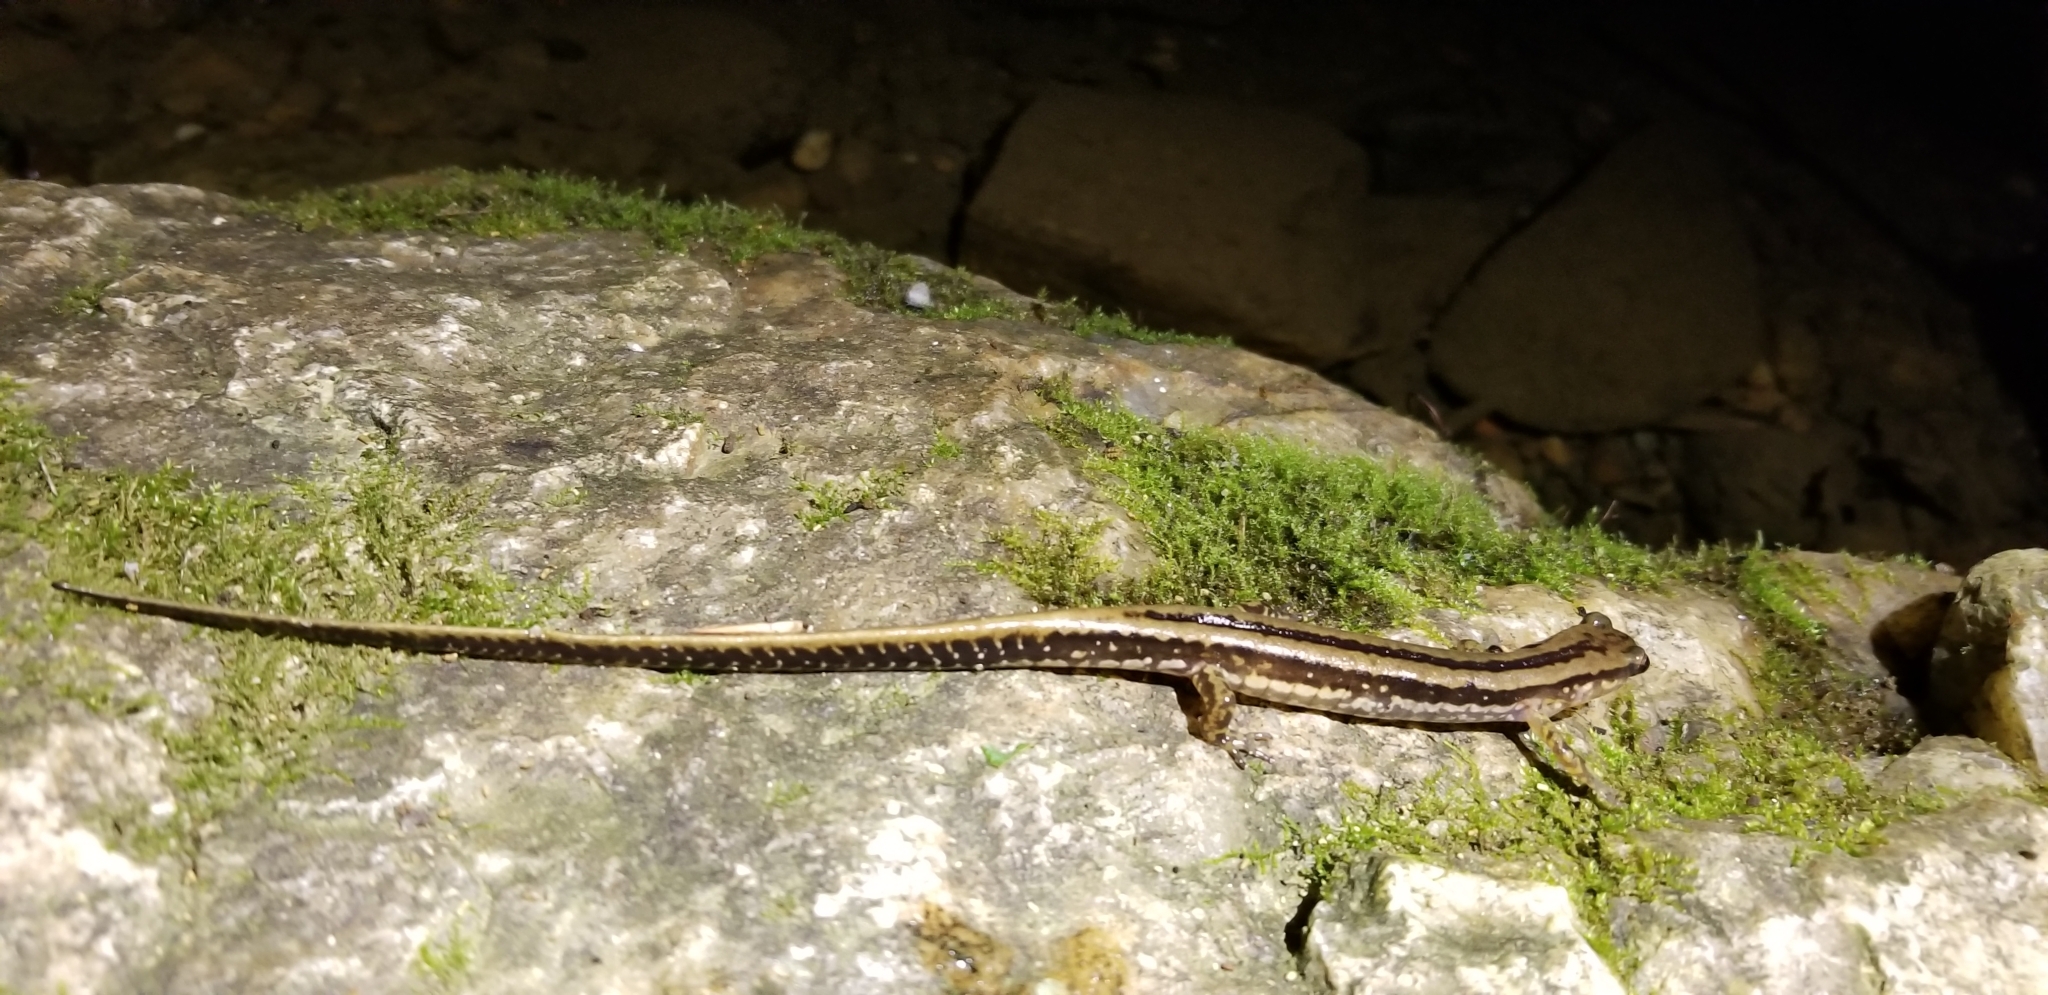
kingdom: Animalia
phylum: Chordata
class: Amphibia
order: Caudata
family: Plethodontidae
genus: Eurycea
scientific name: Eurycea guttolineata
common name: Three-lined salamander
